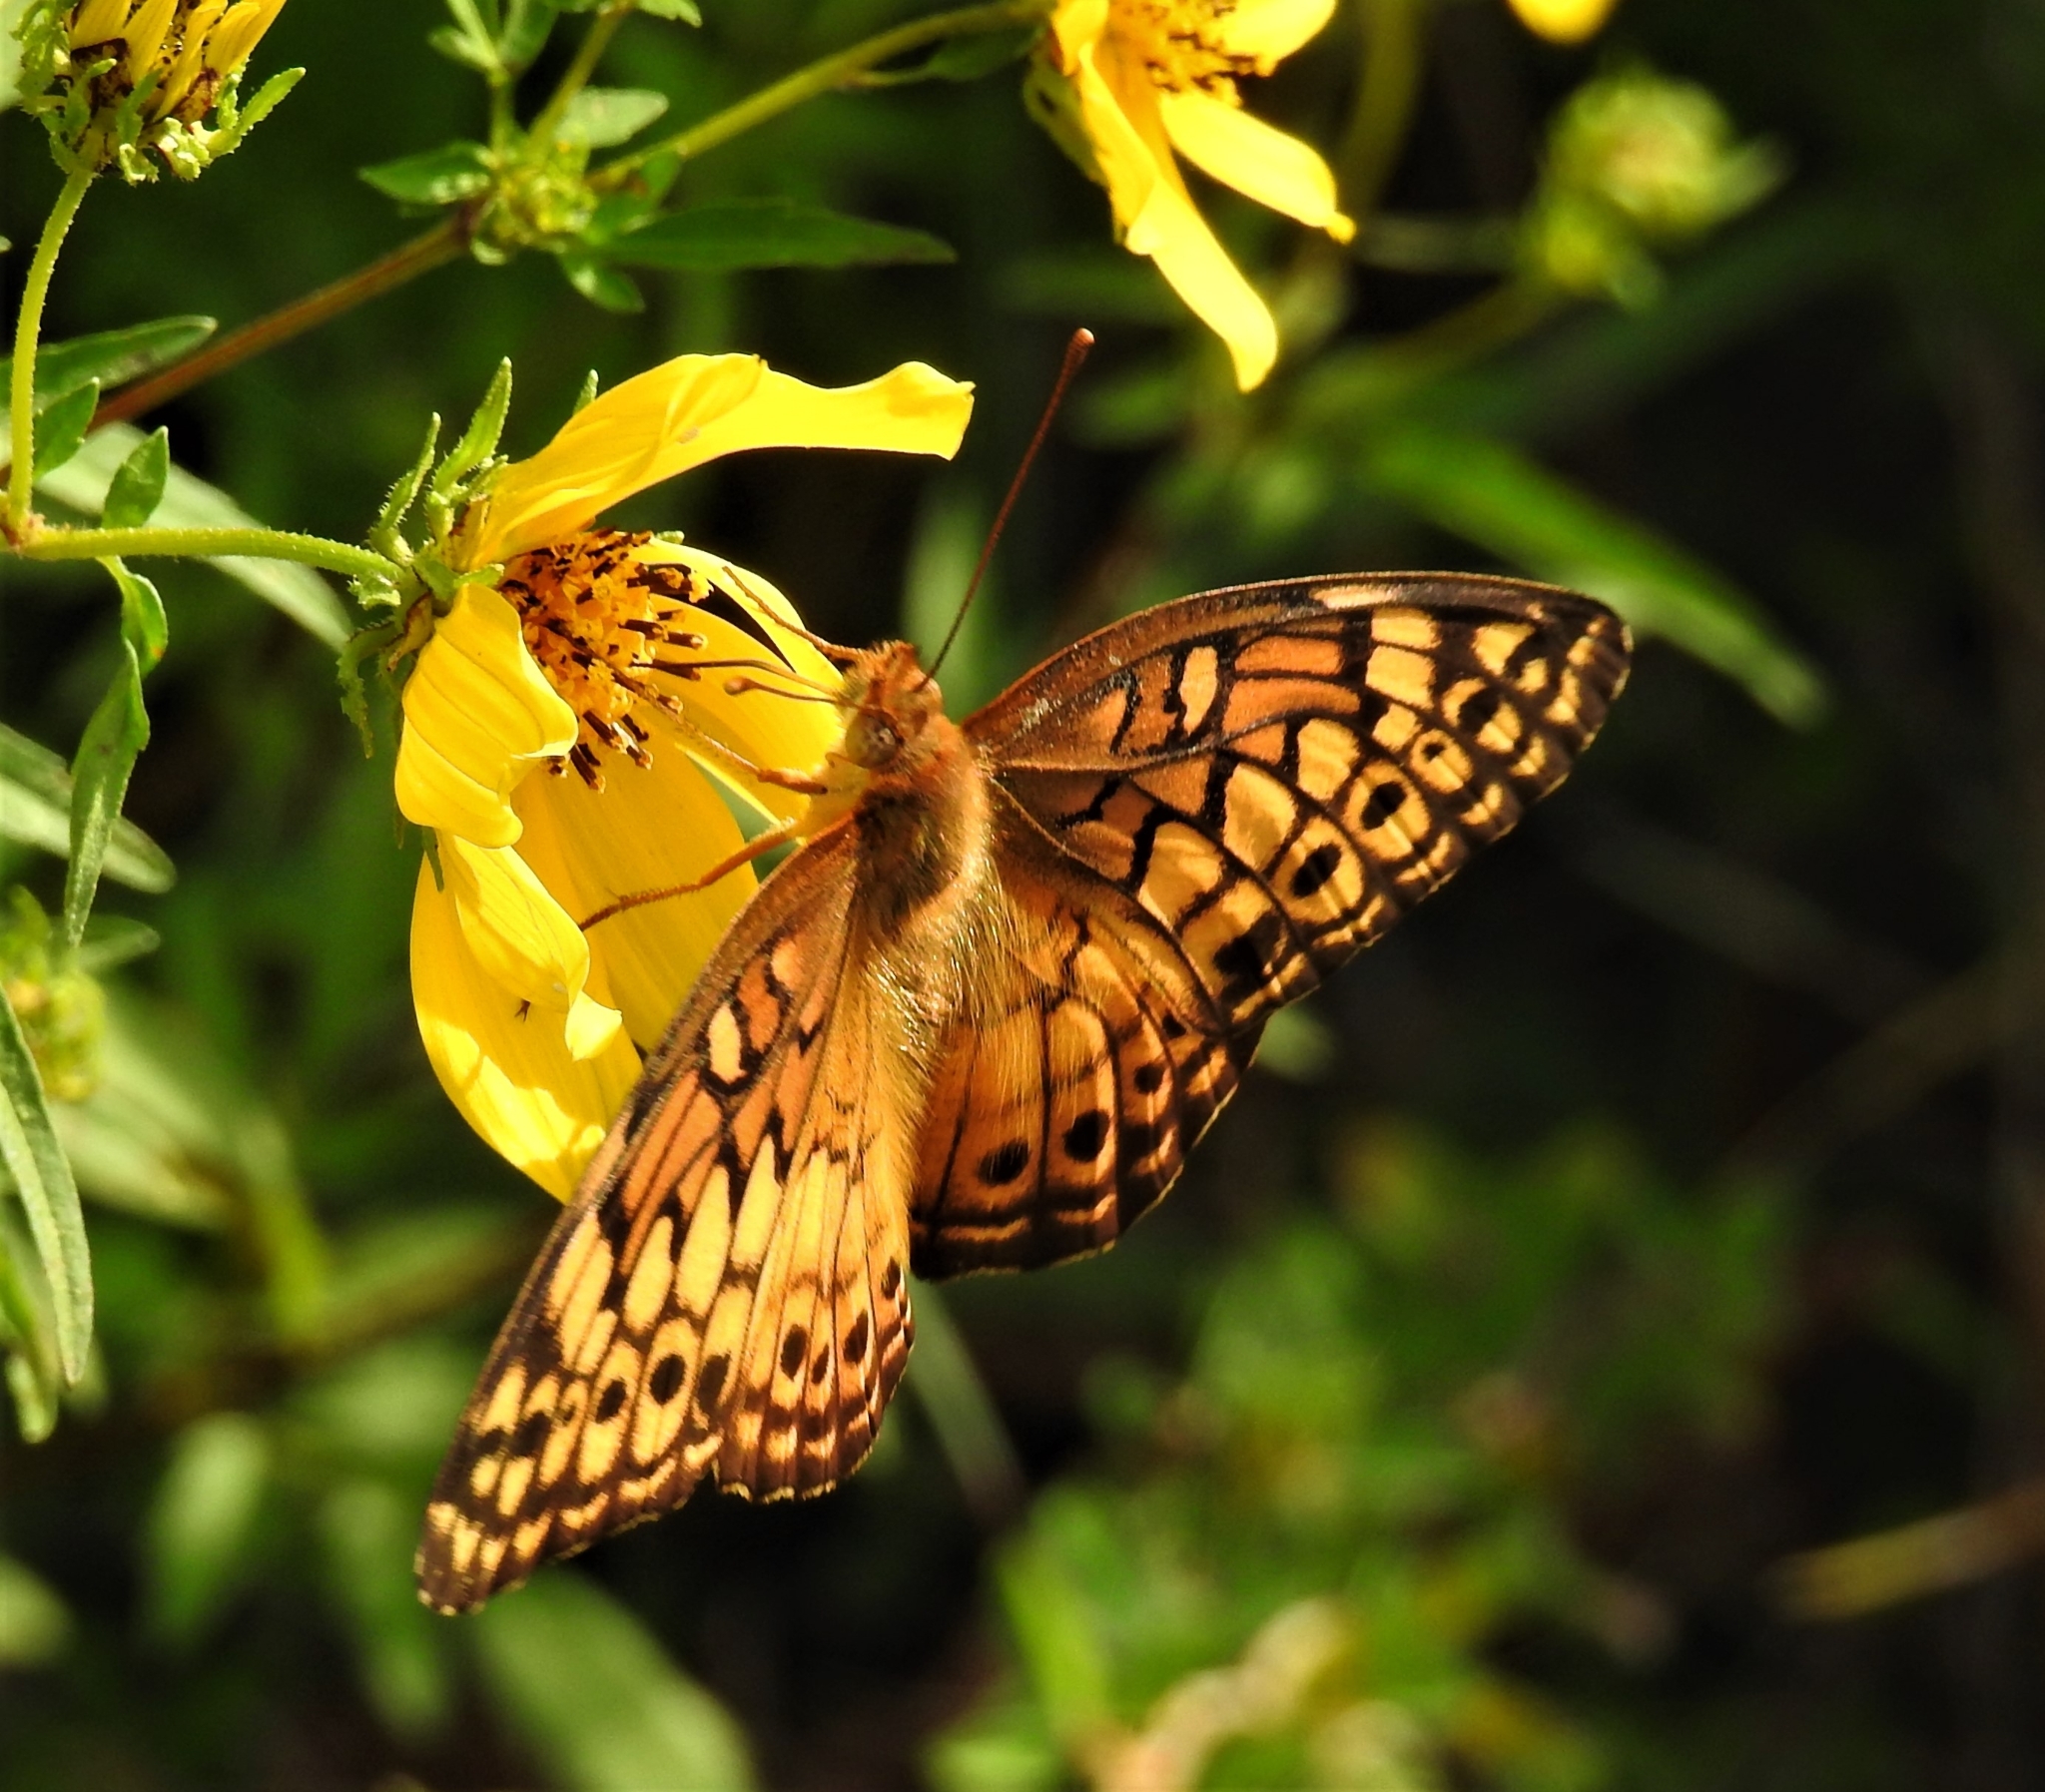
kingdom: Animalia
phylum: Arthropoda
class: Insecta
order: Lepidoptera
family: Nymphalidae
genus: Euptoieta
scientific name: Euptoieta claudia
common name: Variegated fritillary
